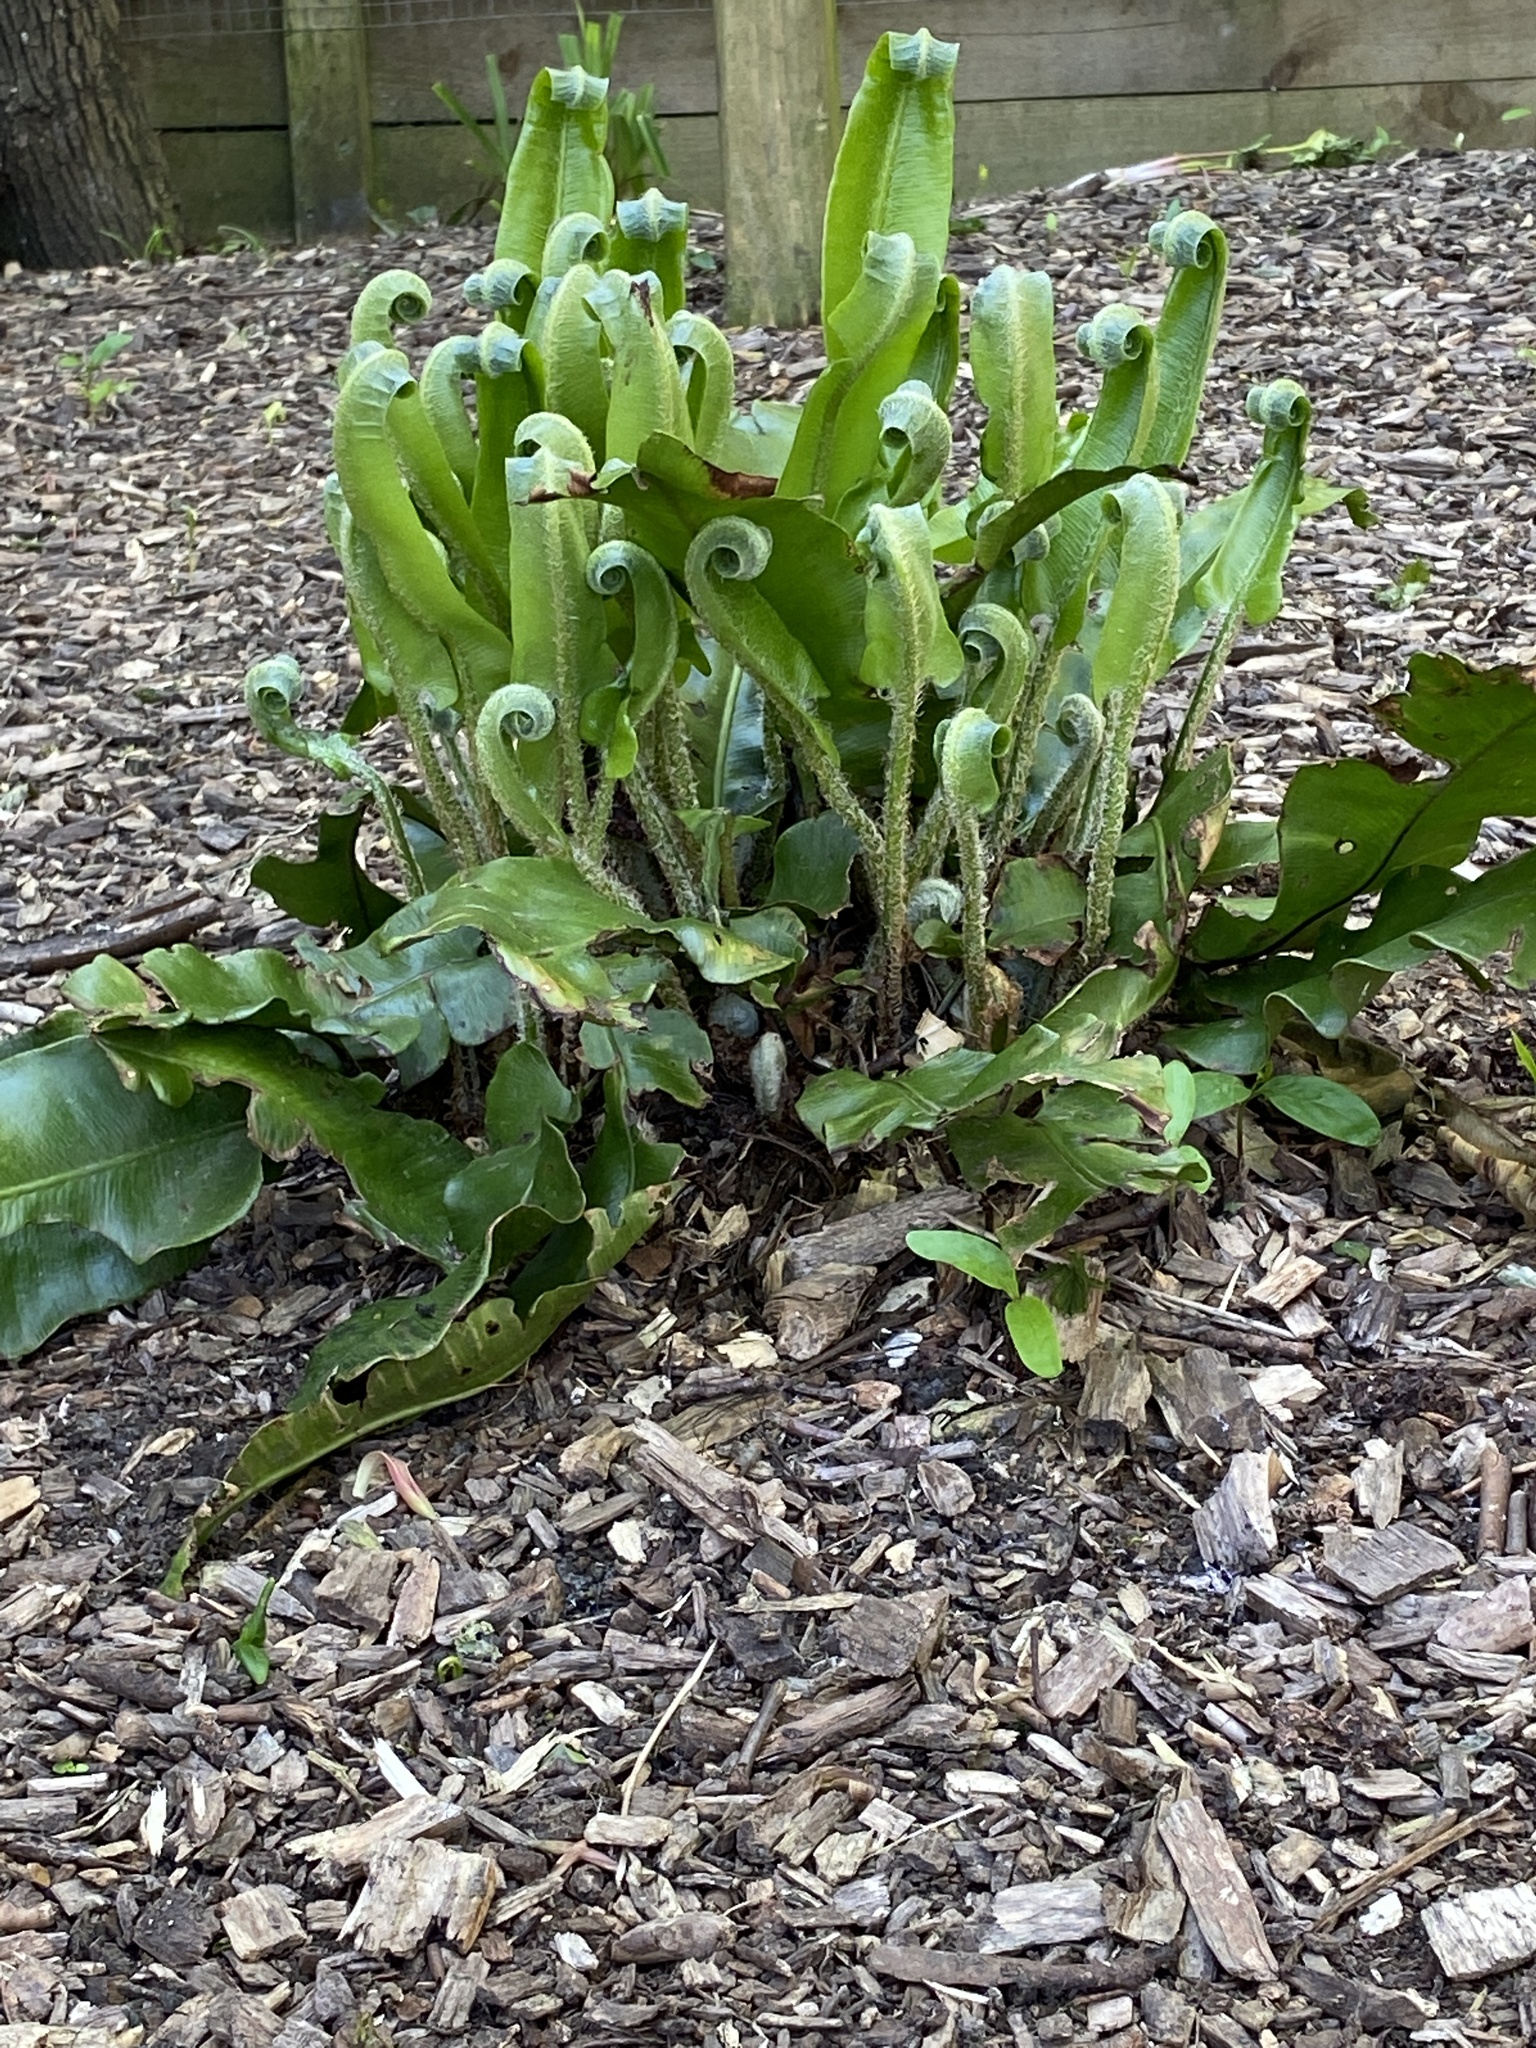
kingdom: Plantae
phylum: Tracheophyta
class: Polypodiopsida
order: Polypodiales
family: Aspleniaceae
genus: Asplenium
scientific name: Asplenium scolopendrium
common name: Hart's-tongue fern
